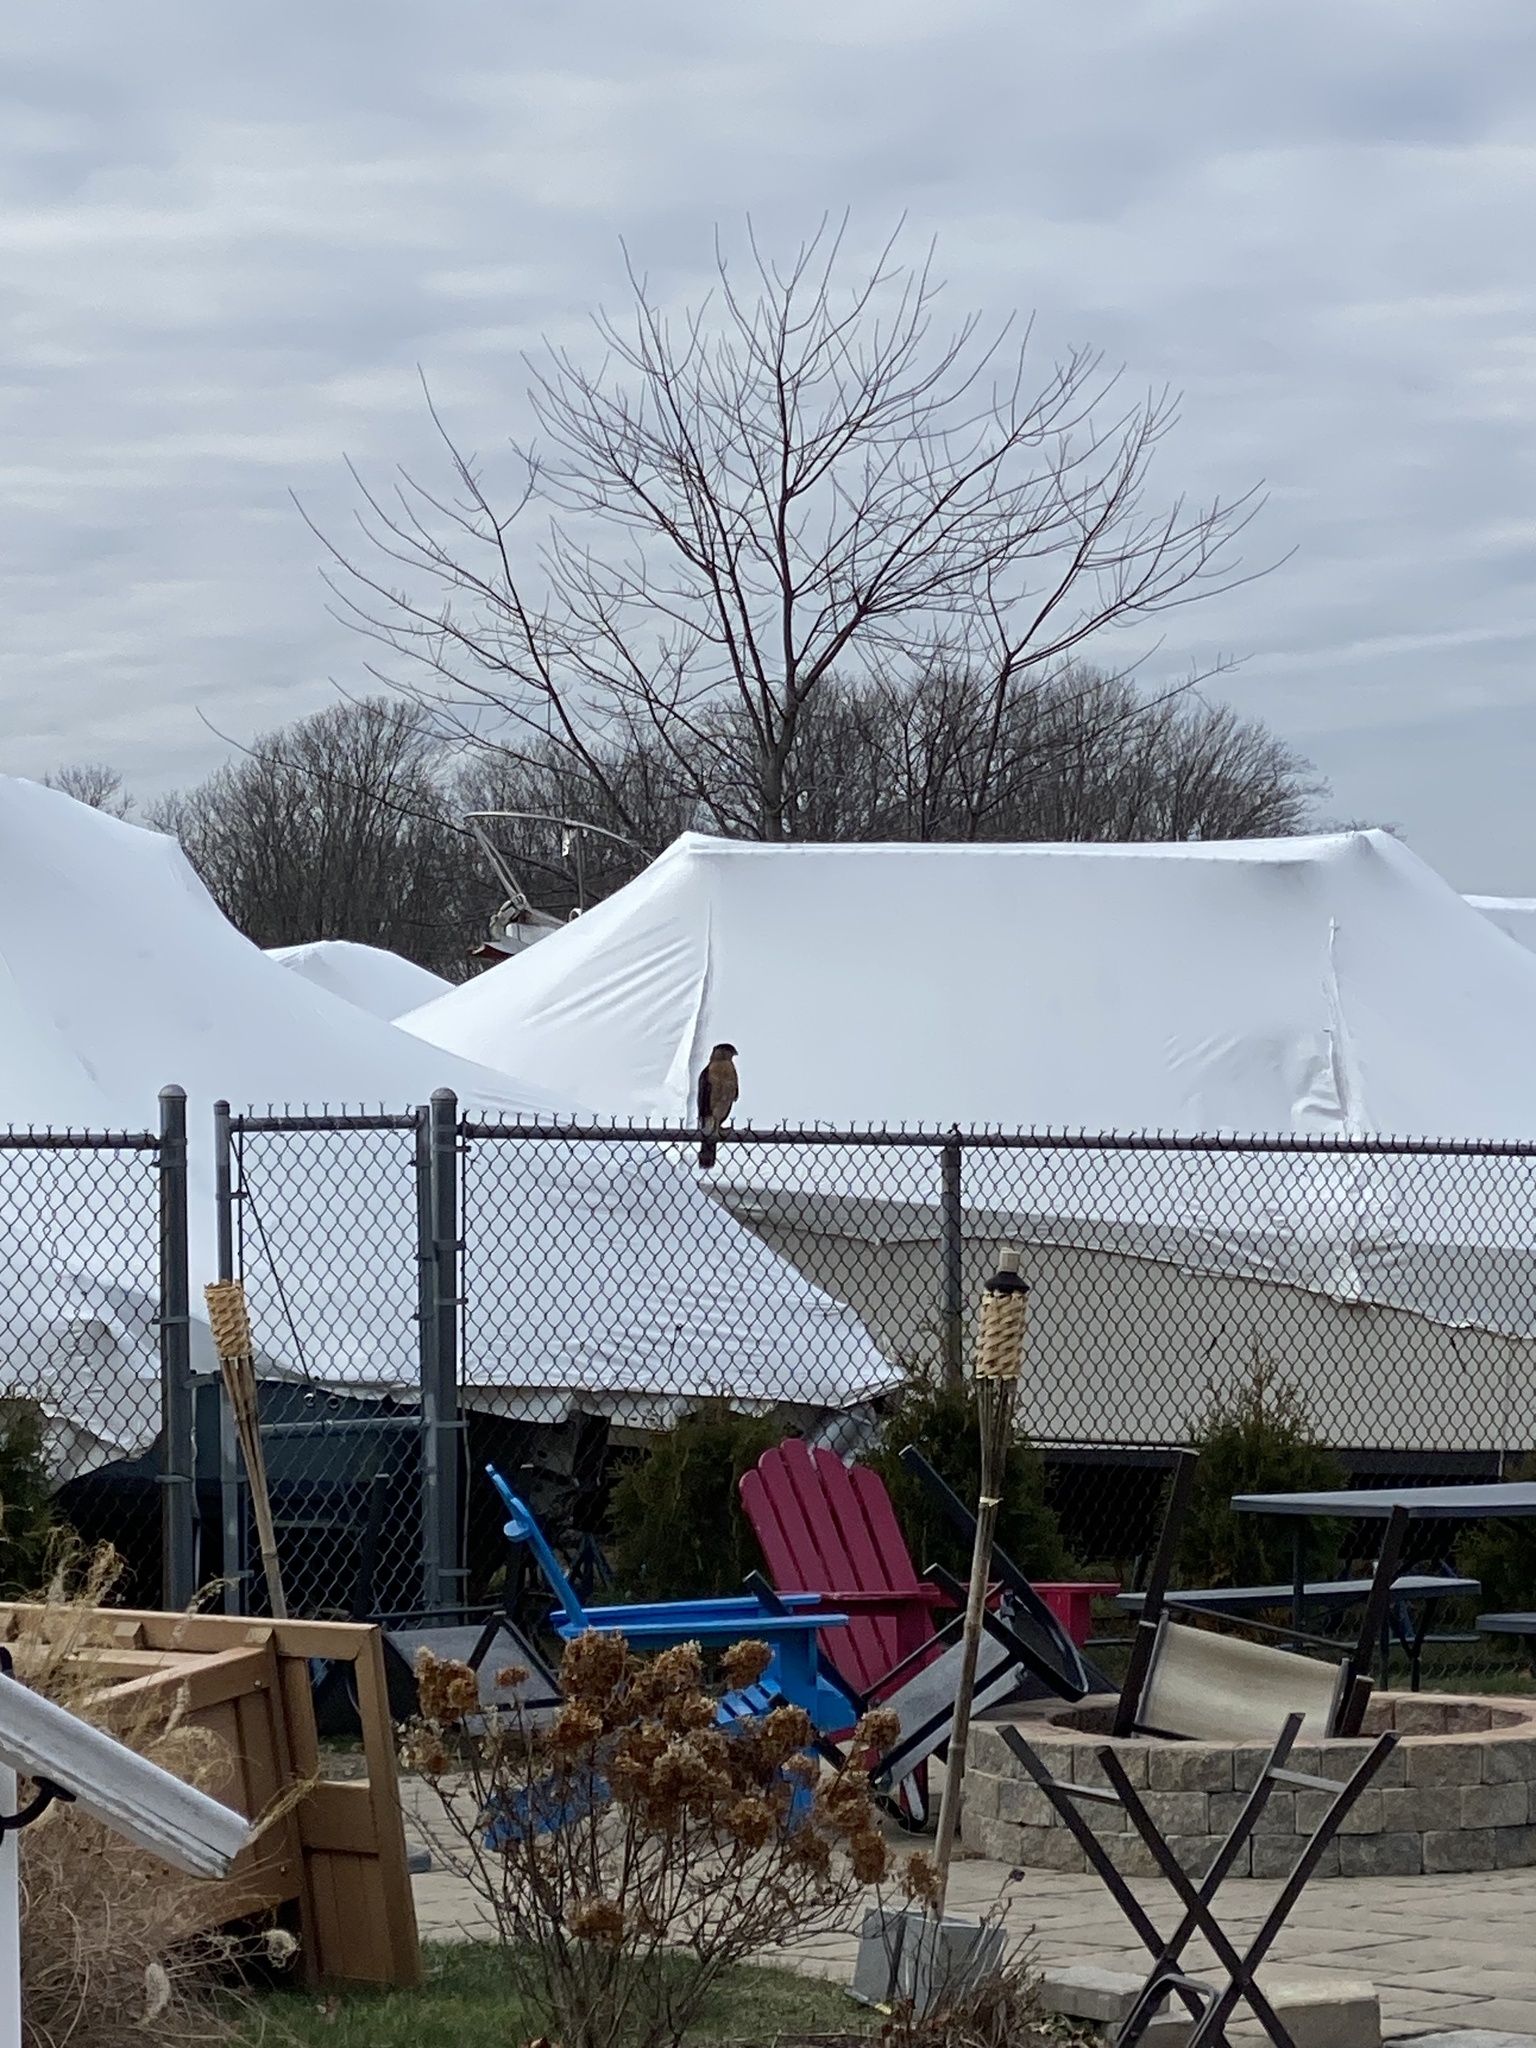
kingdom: Animalia
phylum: Chordata
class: Aves
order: Accipitriformes
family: Accipitridae
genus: Accipiter
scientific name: Accipiter cooperii
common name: Cooper's hawk
